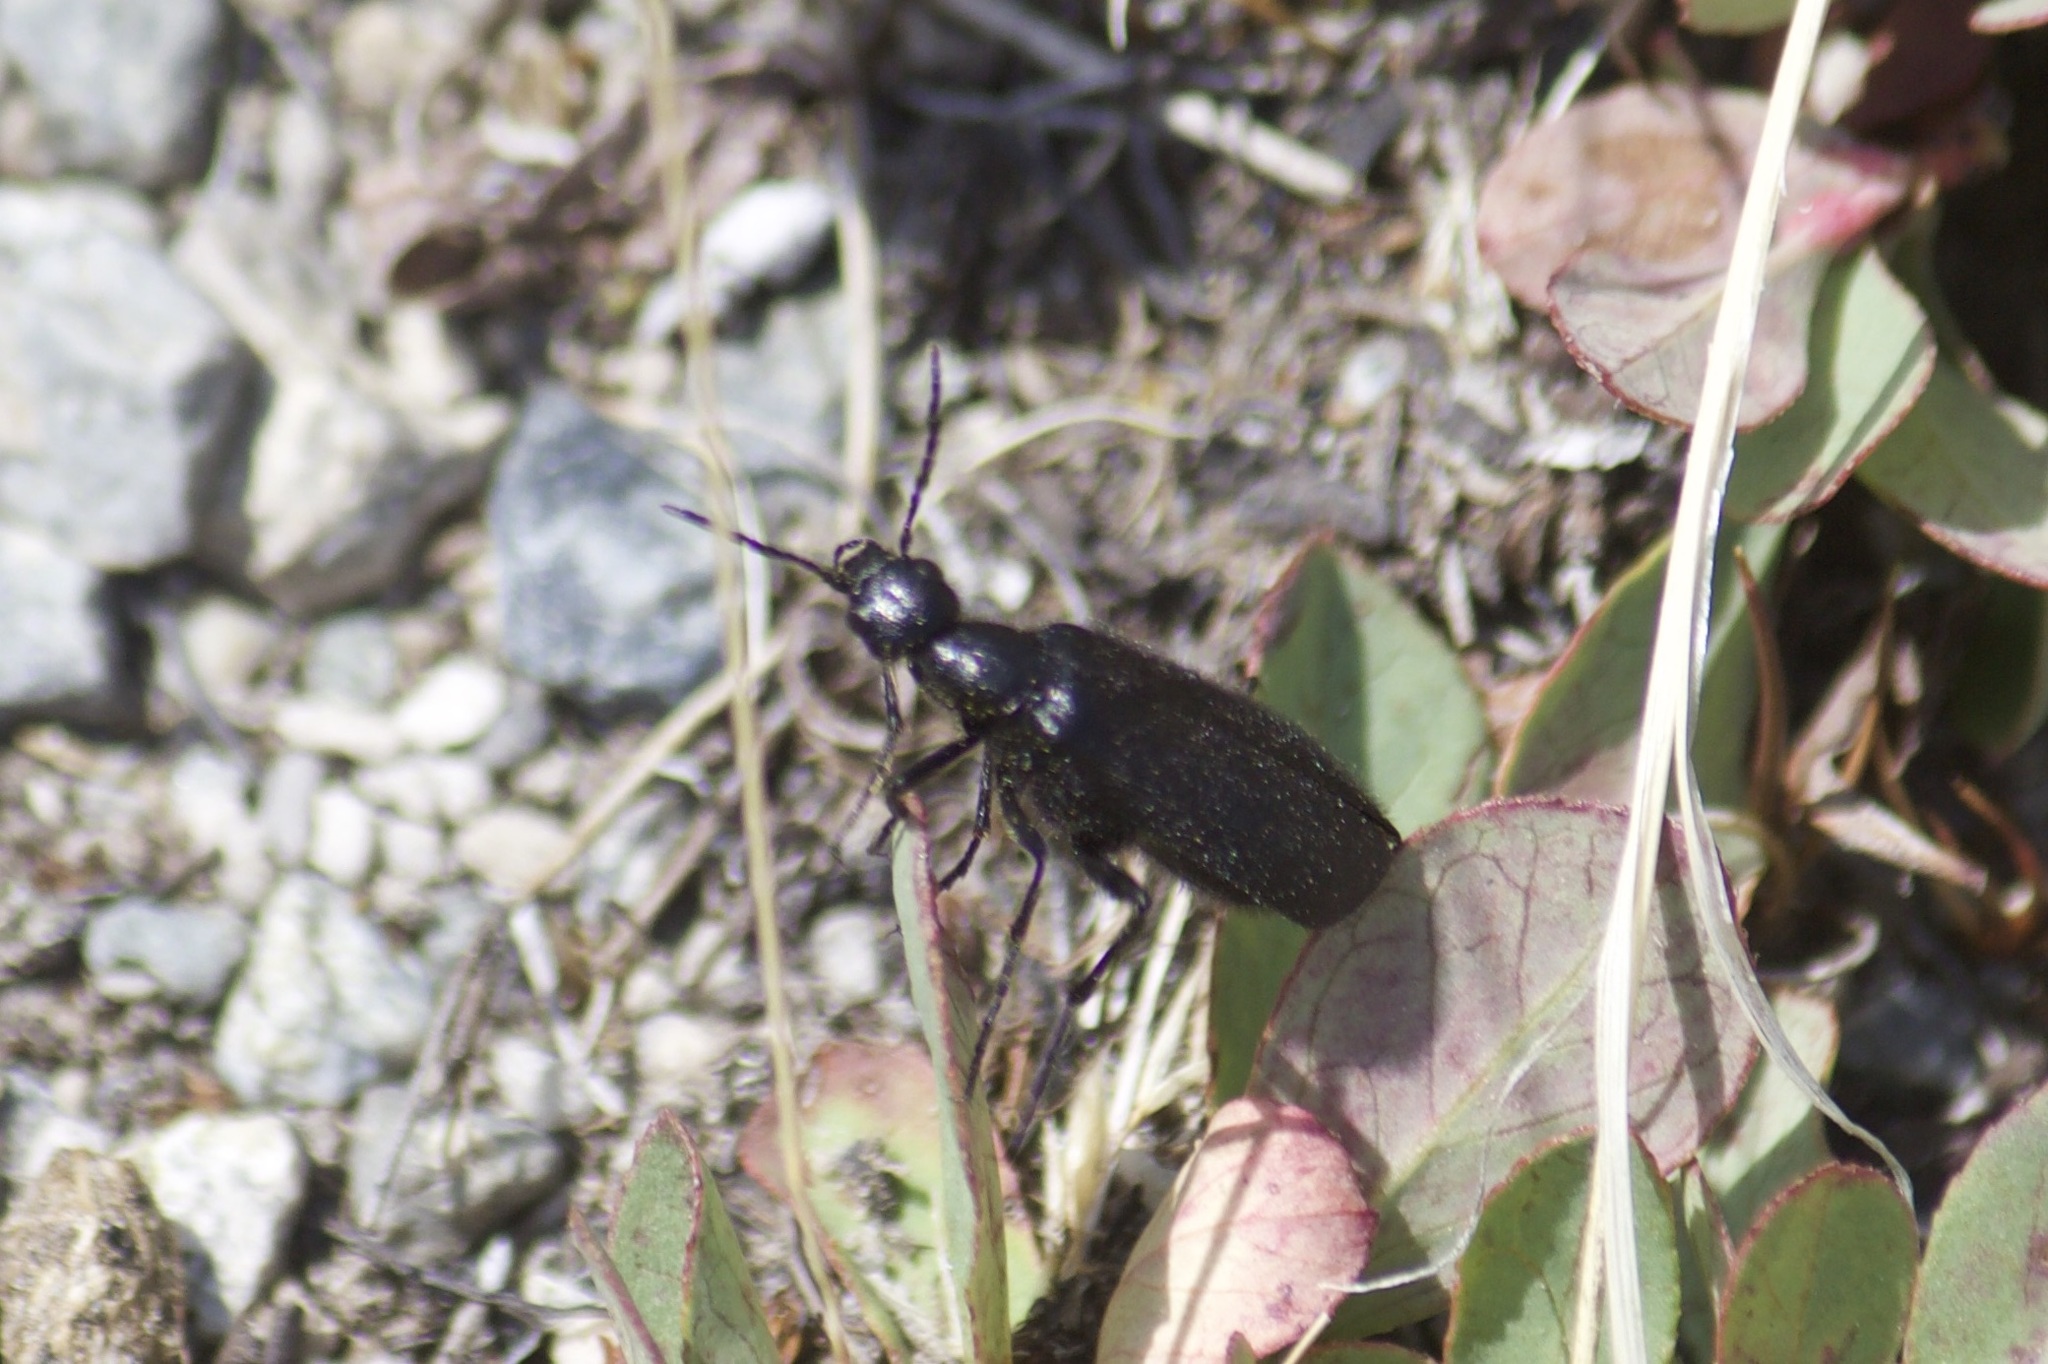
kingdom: Animalia
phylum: Arthropoda
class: Insecta
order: Coleoptera
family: Meloidae
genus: Epicauta
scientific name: Epicauta puncticollis
